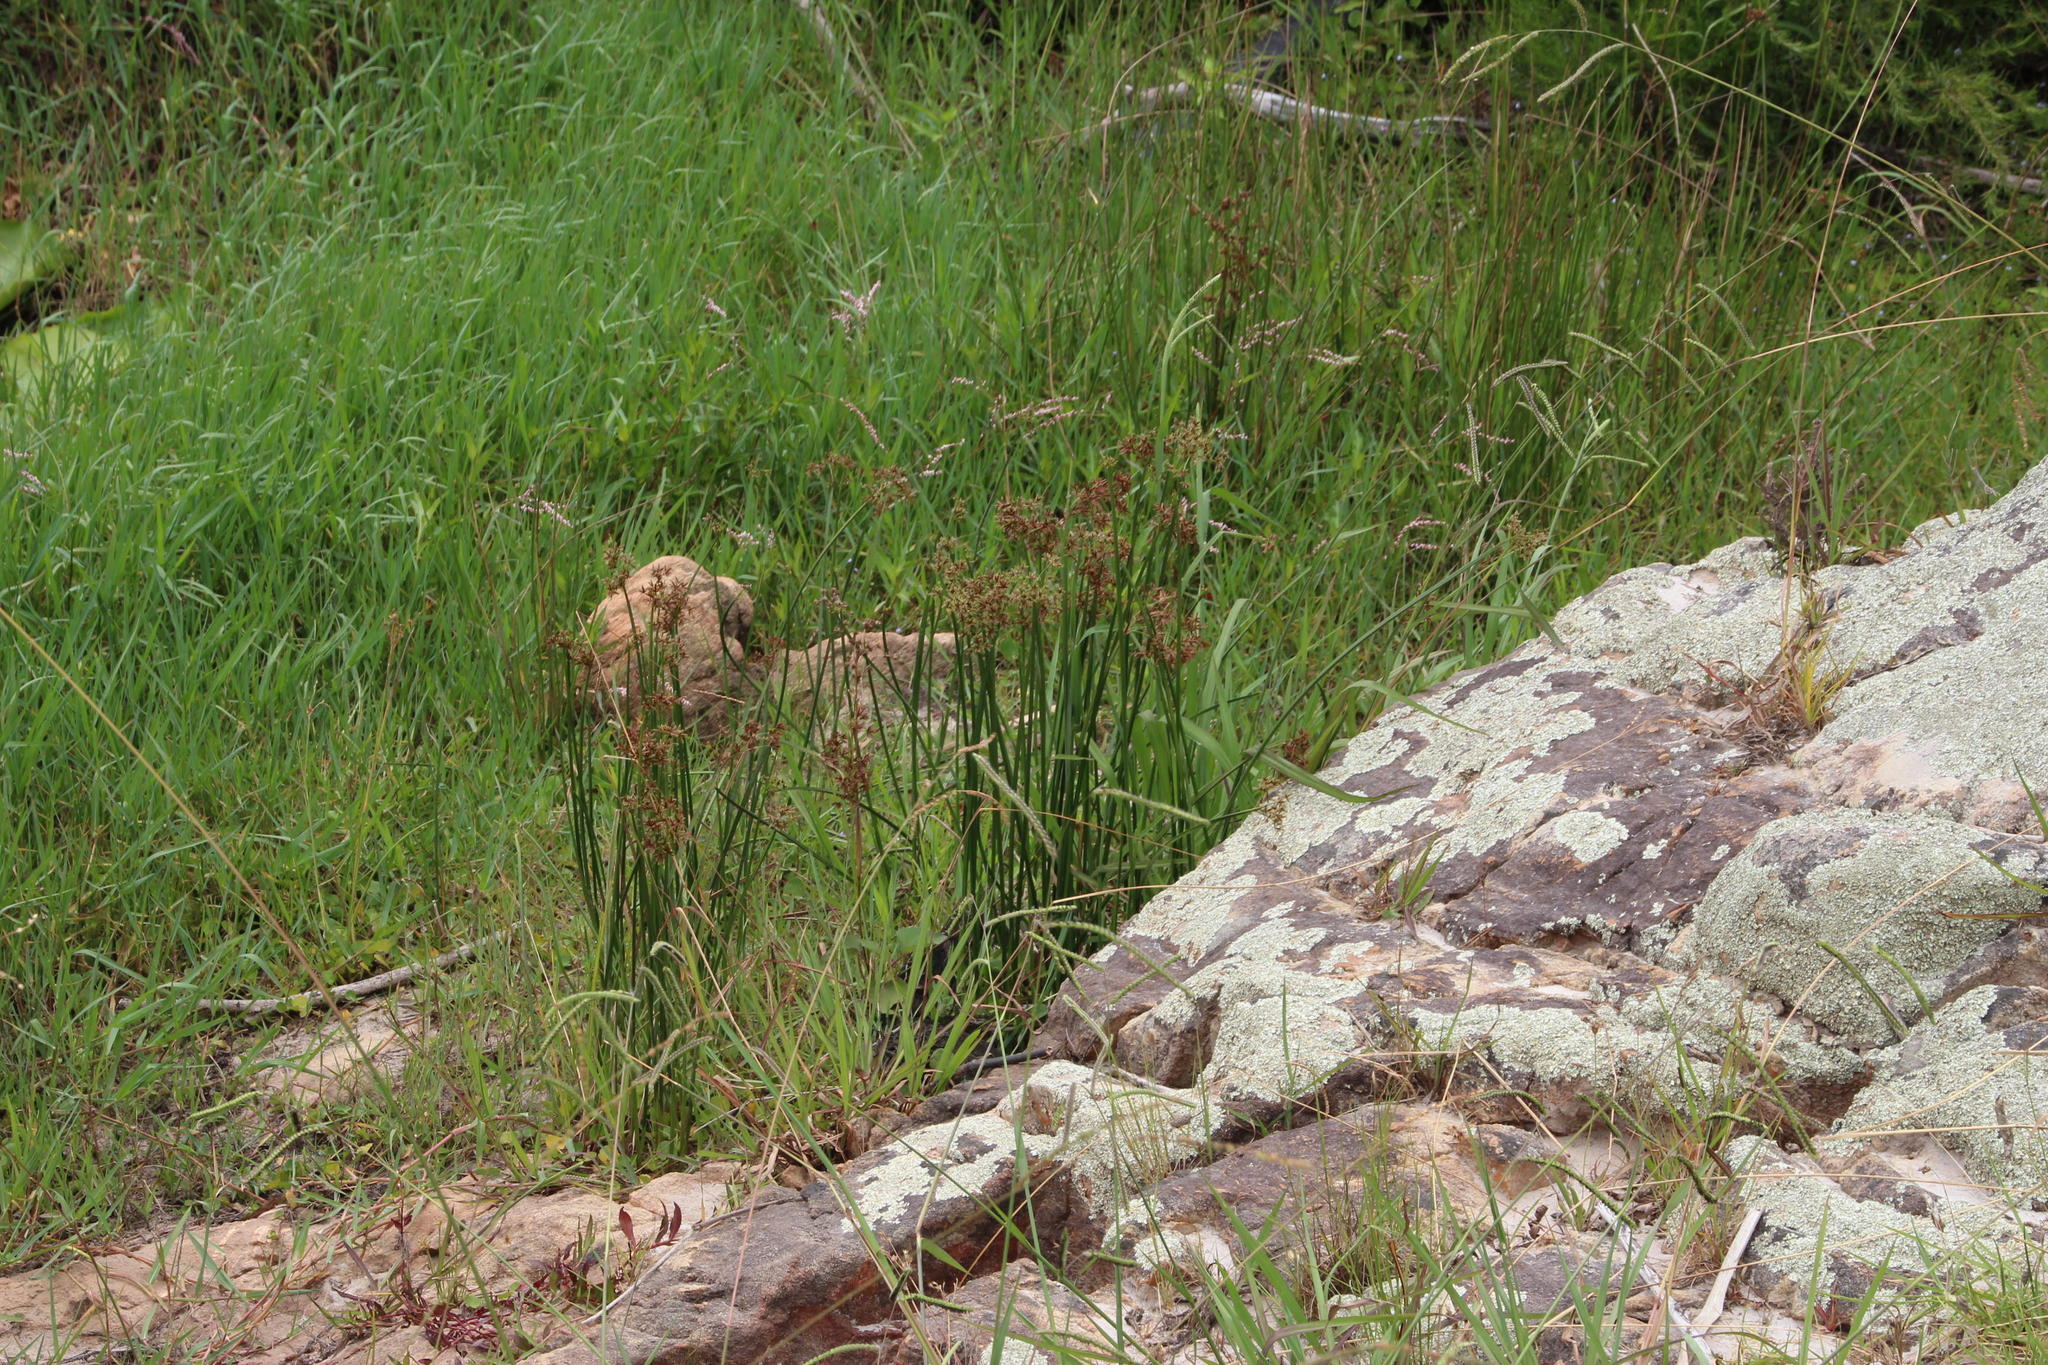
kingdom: Plantae
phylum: Tracheophyta
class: Liliopsida
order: Poales
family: Cyperaceae
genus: Cyperus
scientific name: Cyperus denudatus
